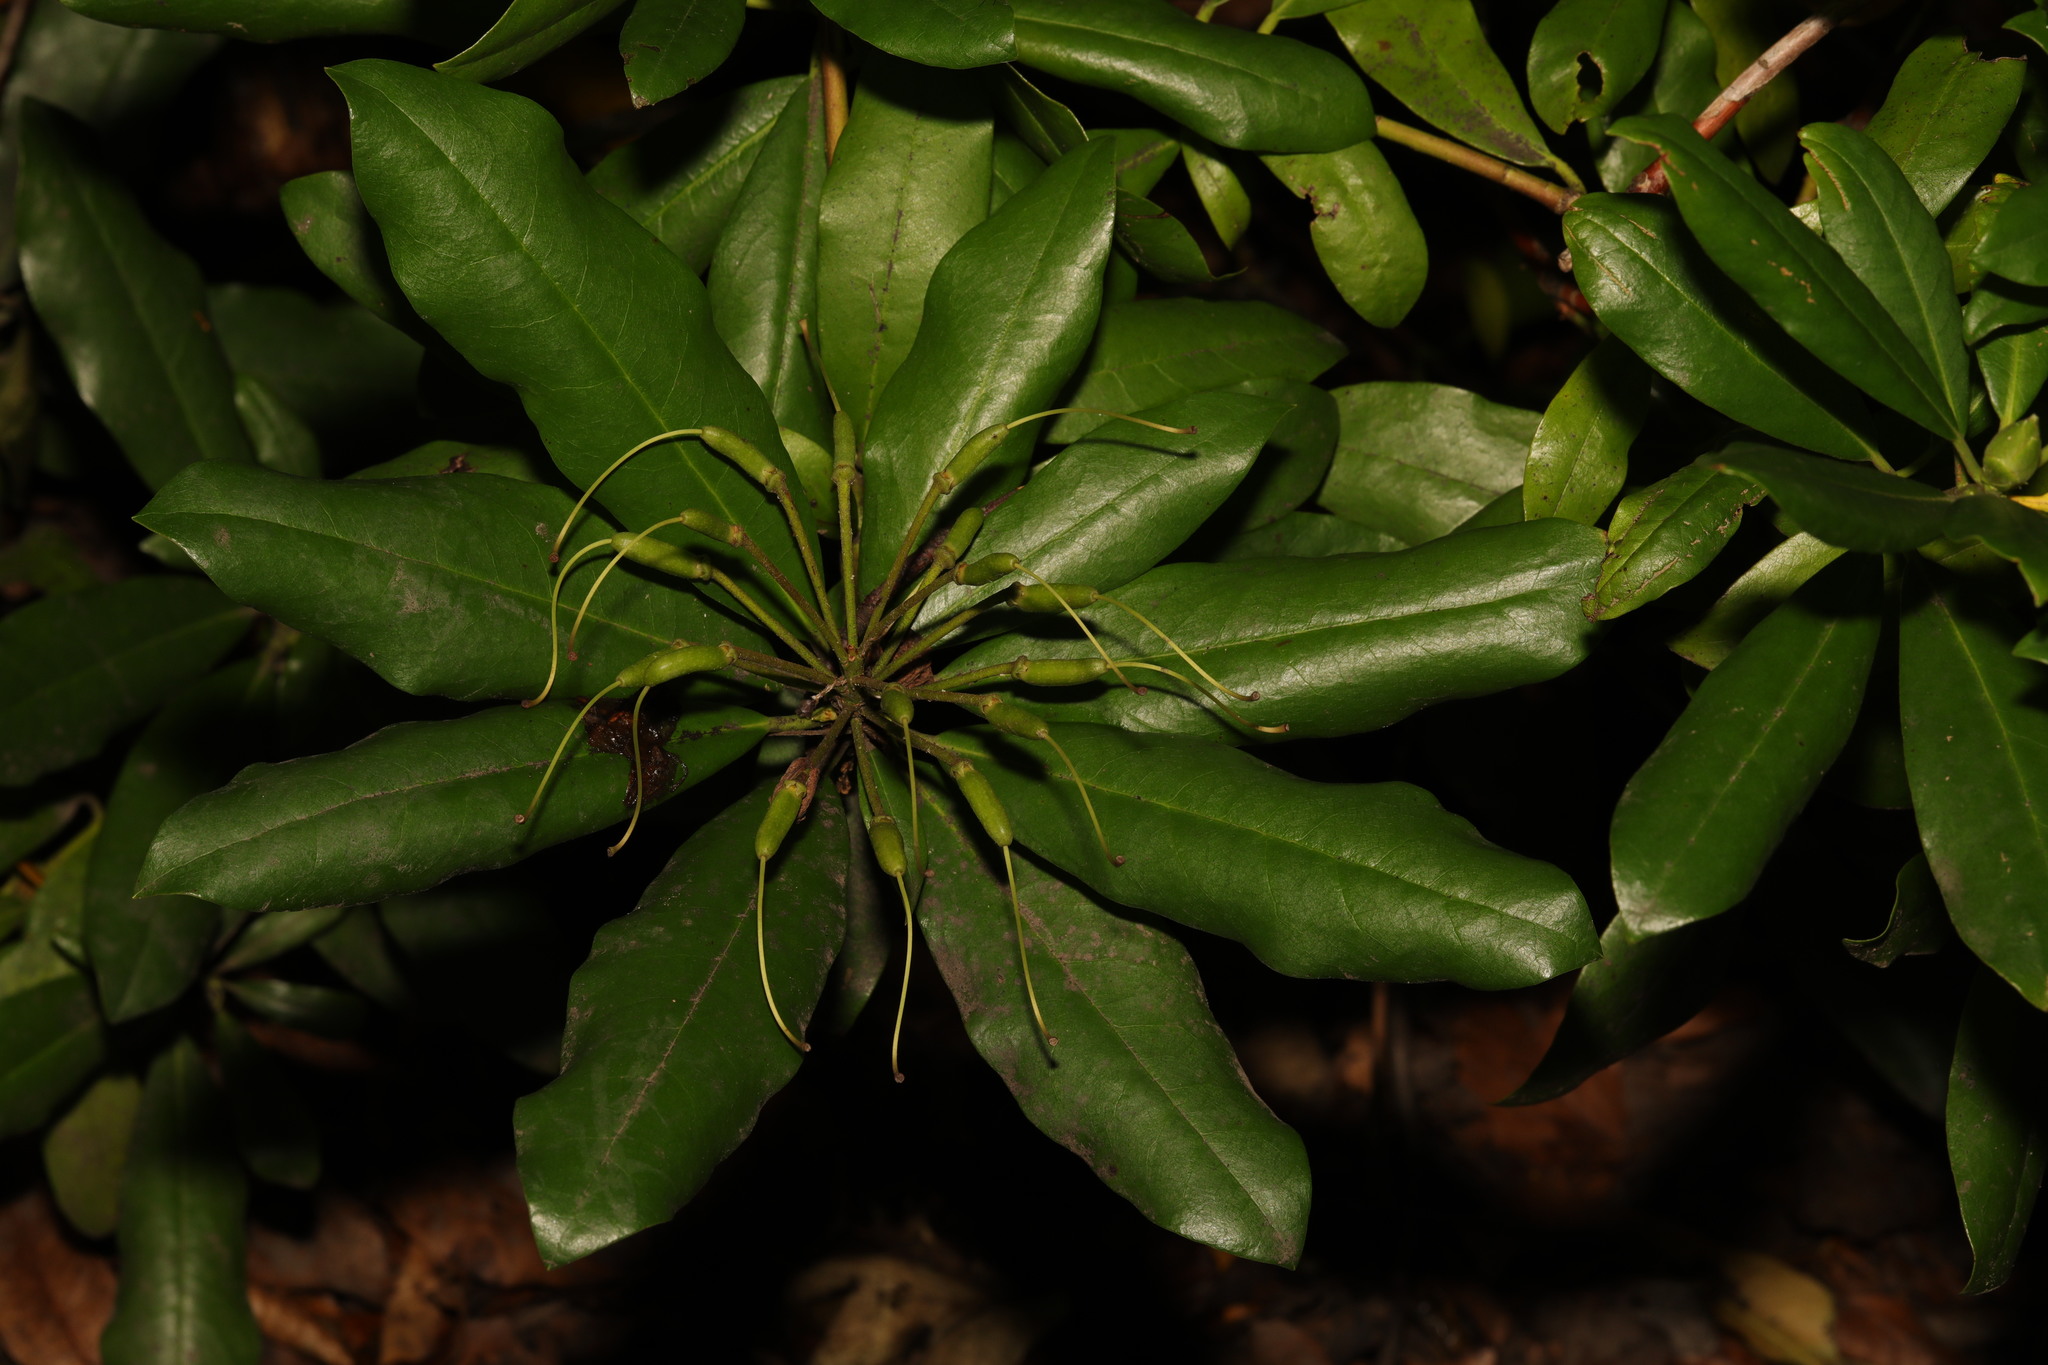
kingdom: Plantae
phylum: Tracheophyta
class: Magnoliopsida
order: Ericales
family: Ericaceae
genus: Rhododendron
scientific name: Rhododendron ponticum
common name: Rhododendron
